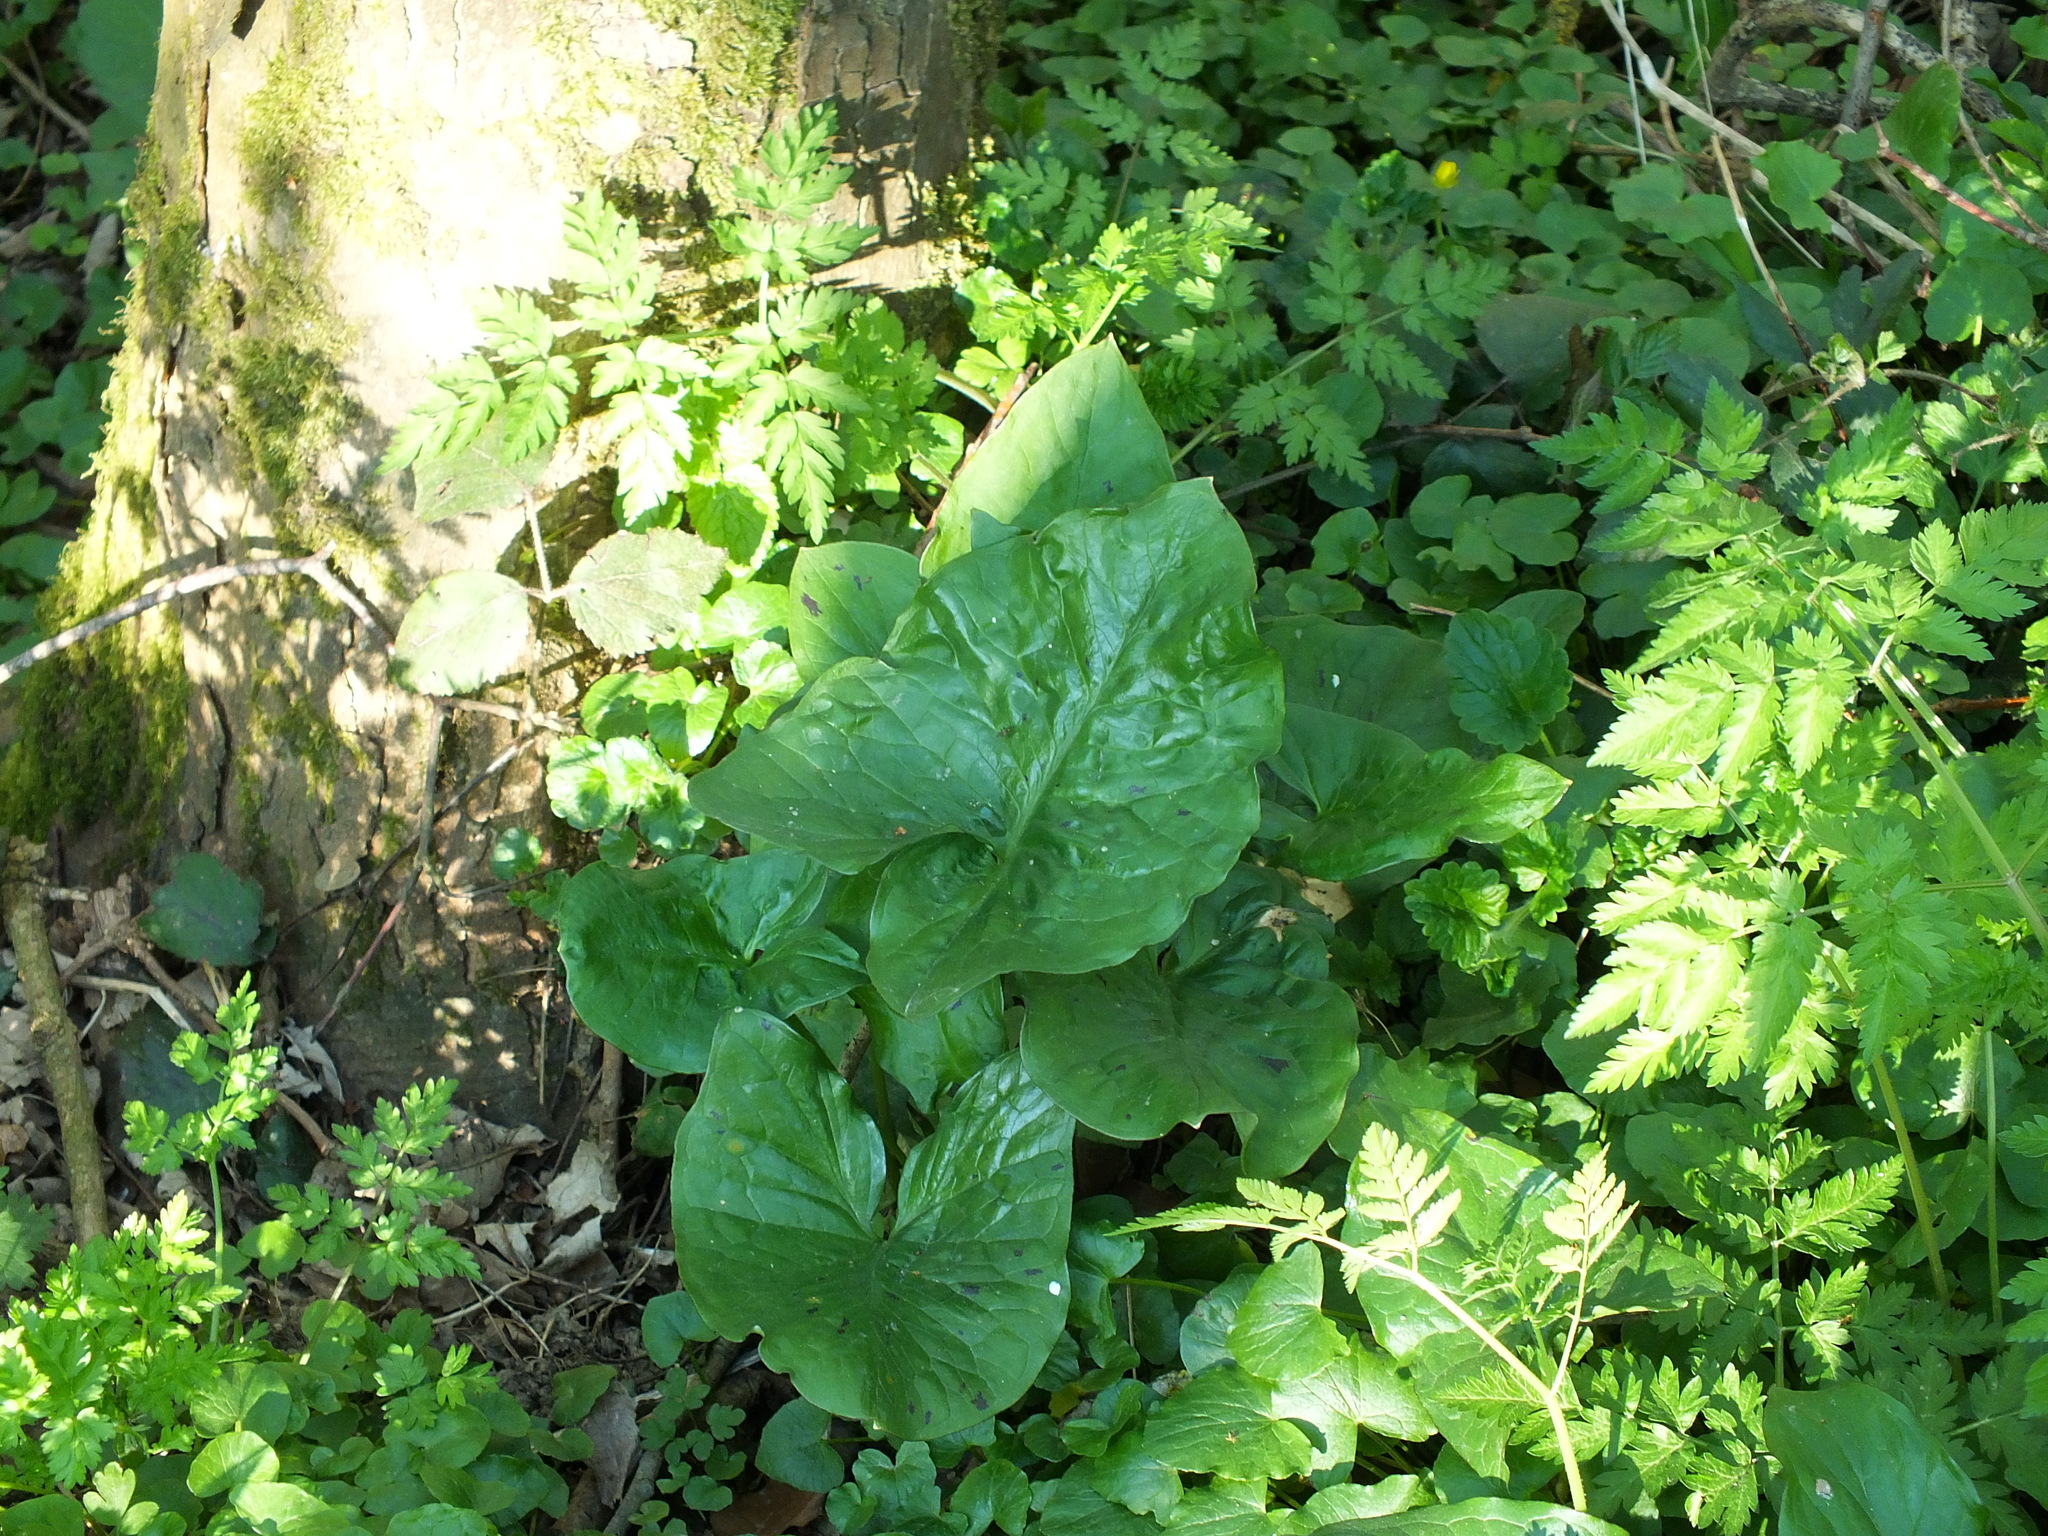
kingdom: Plantae
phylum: Tracheophyta
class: Liliopsida
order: Alismatales
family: Araceae
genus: Arum
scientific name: Arum maculatum
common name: Lords-and-ladies
